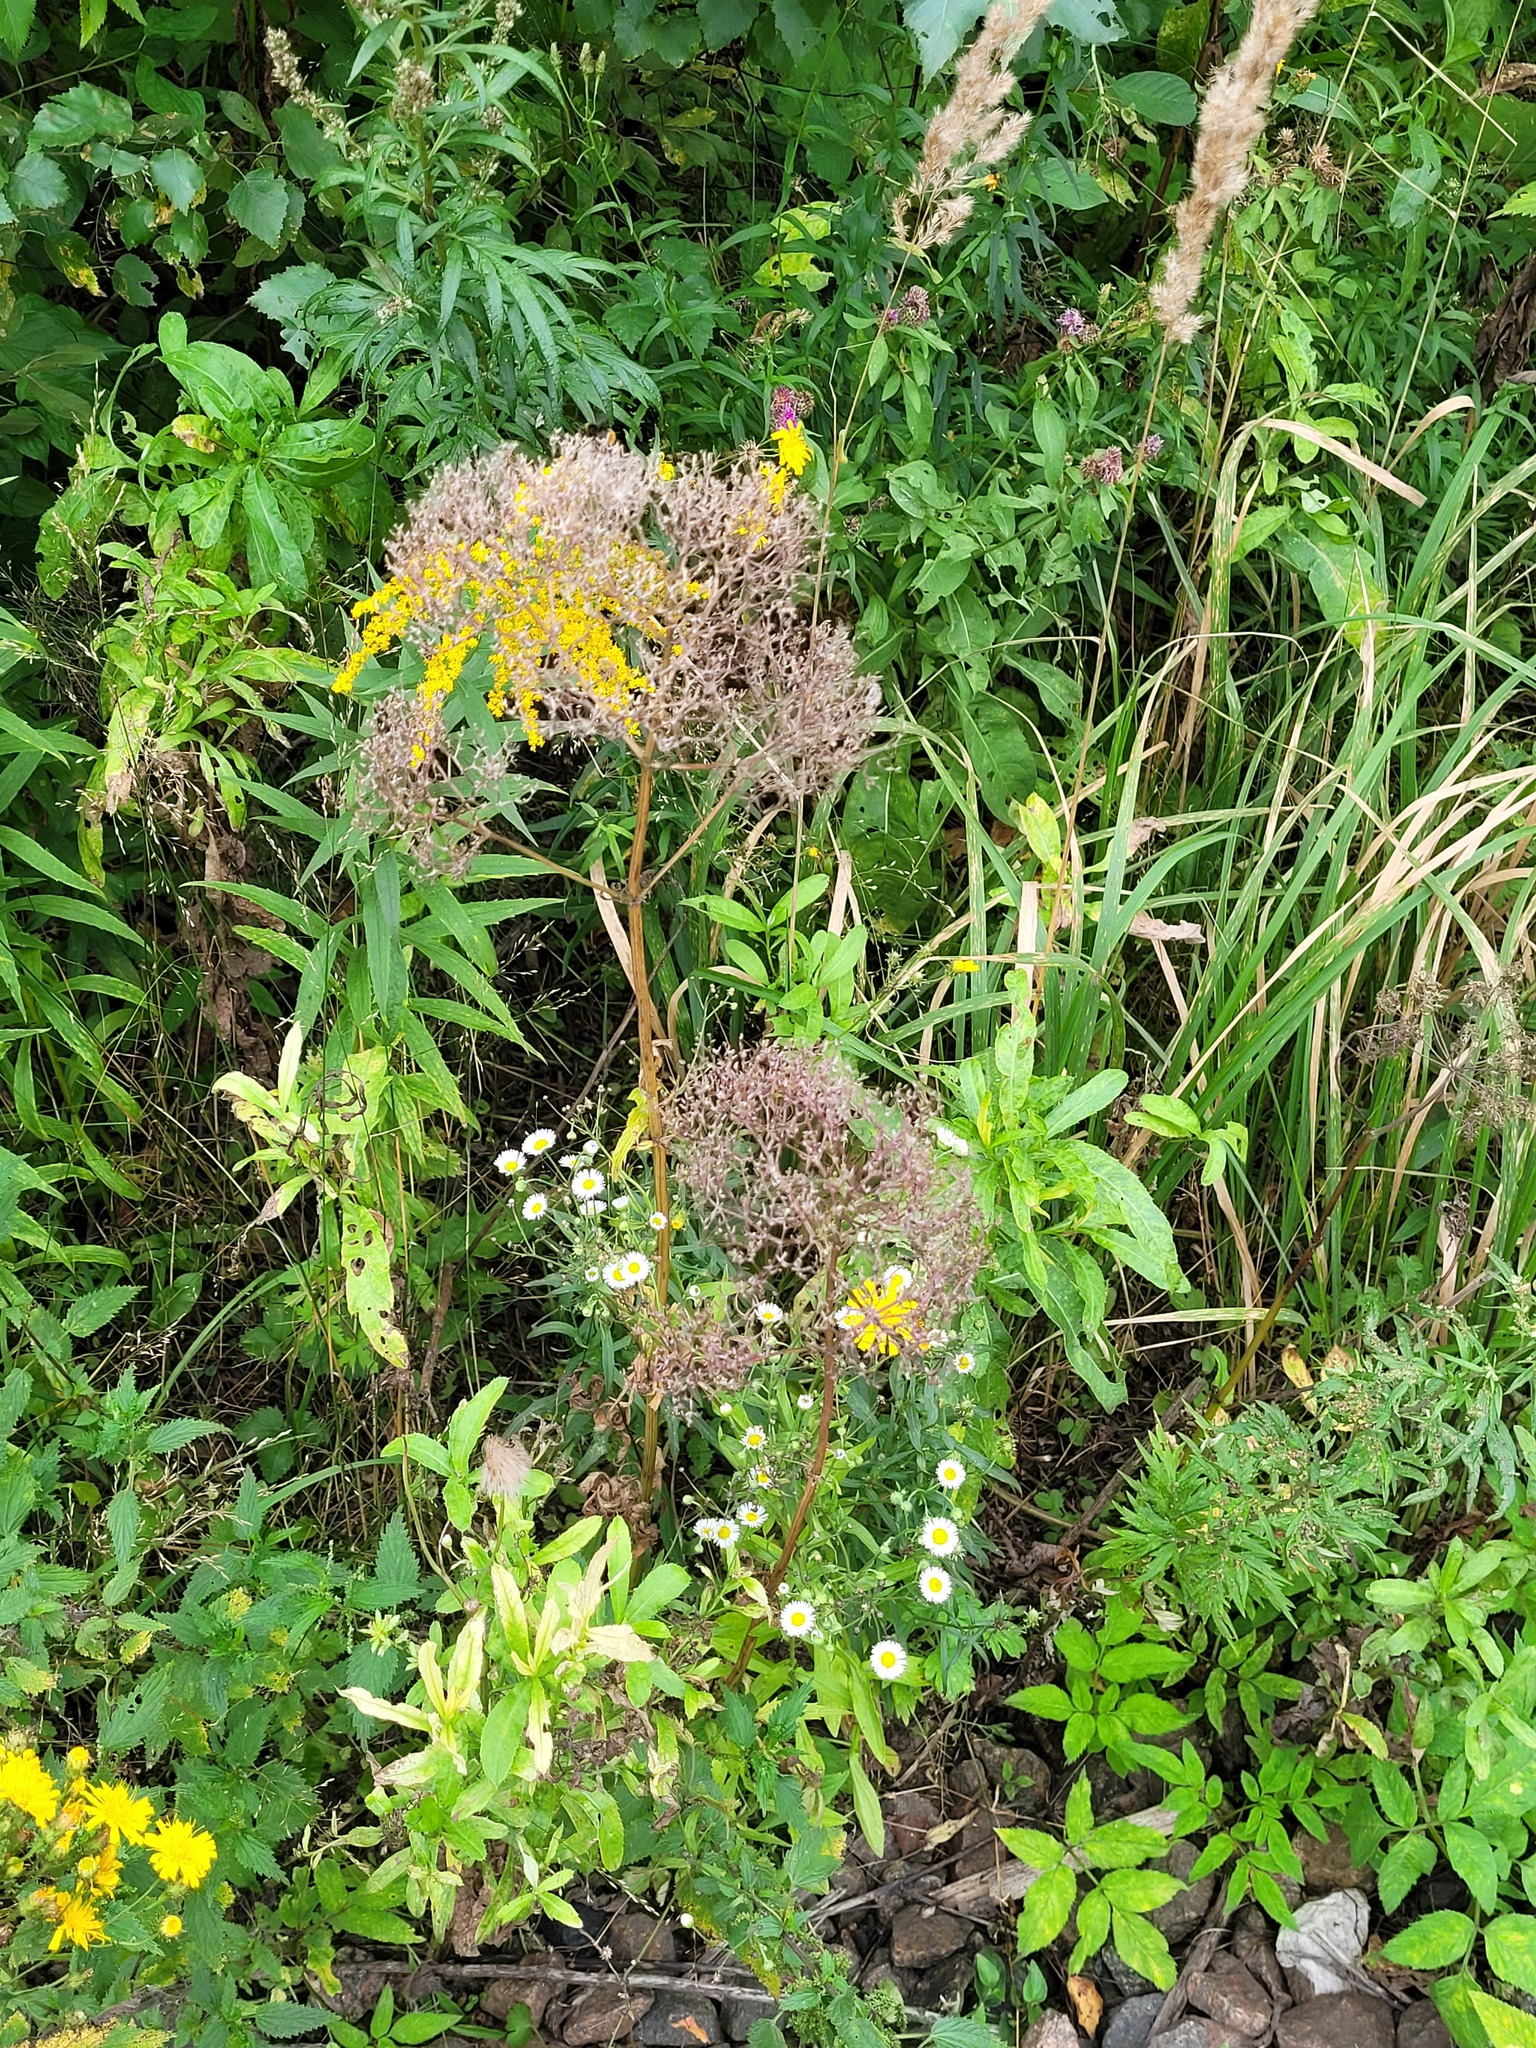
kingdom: Plantae
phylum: Tracheophyta
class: Magnoliopsida
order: Dipsacales
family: Caprifoliaceae
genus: Valeriana
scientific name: Valeriana officinalis
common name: Common valerian
